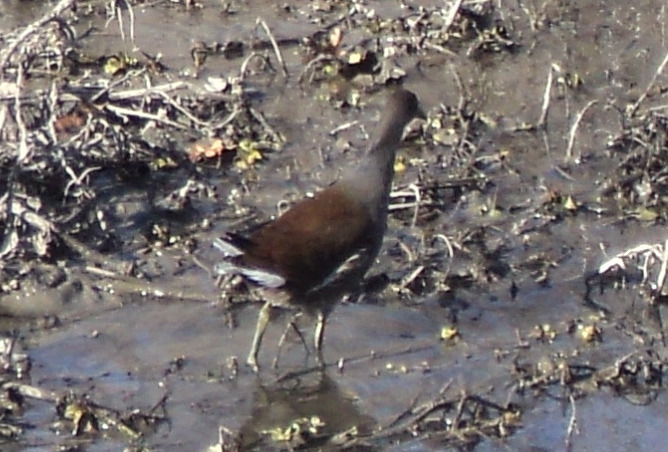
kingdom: Animalia
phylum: Chordata
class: Aves
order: Gruiformes
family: Rallidae
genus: Gallinula
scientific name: Gallinula chloropus
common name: Common moorhen
